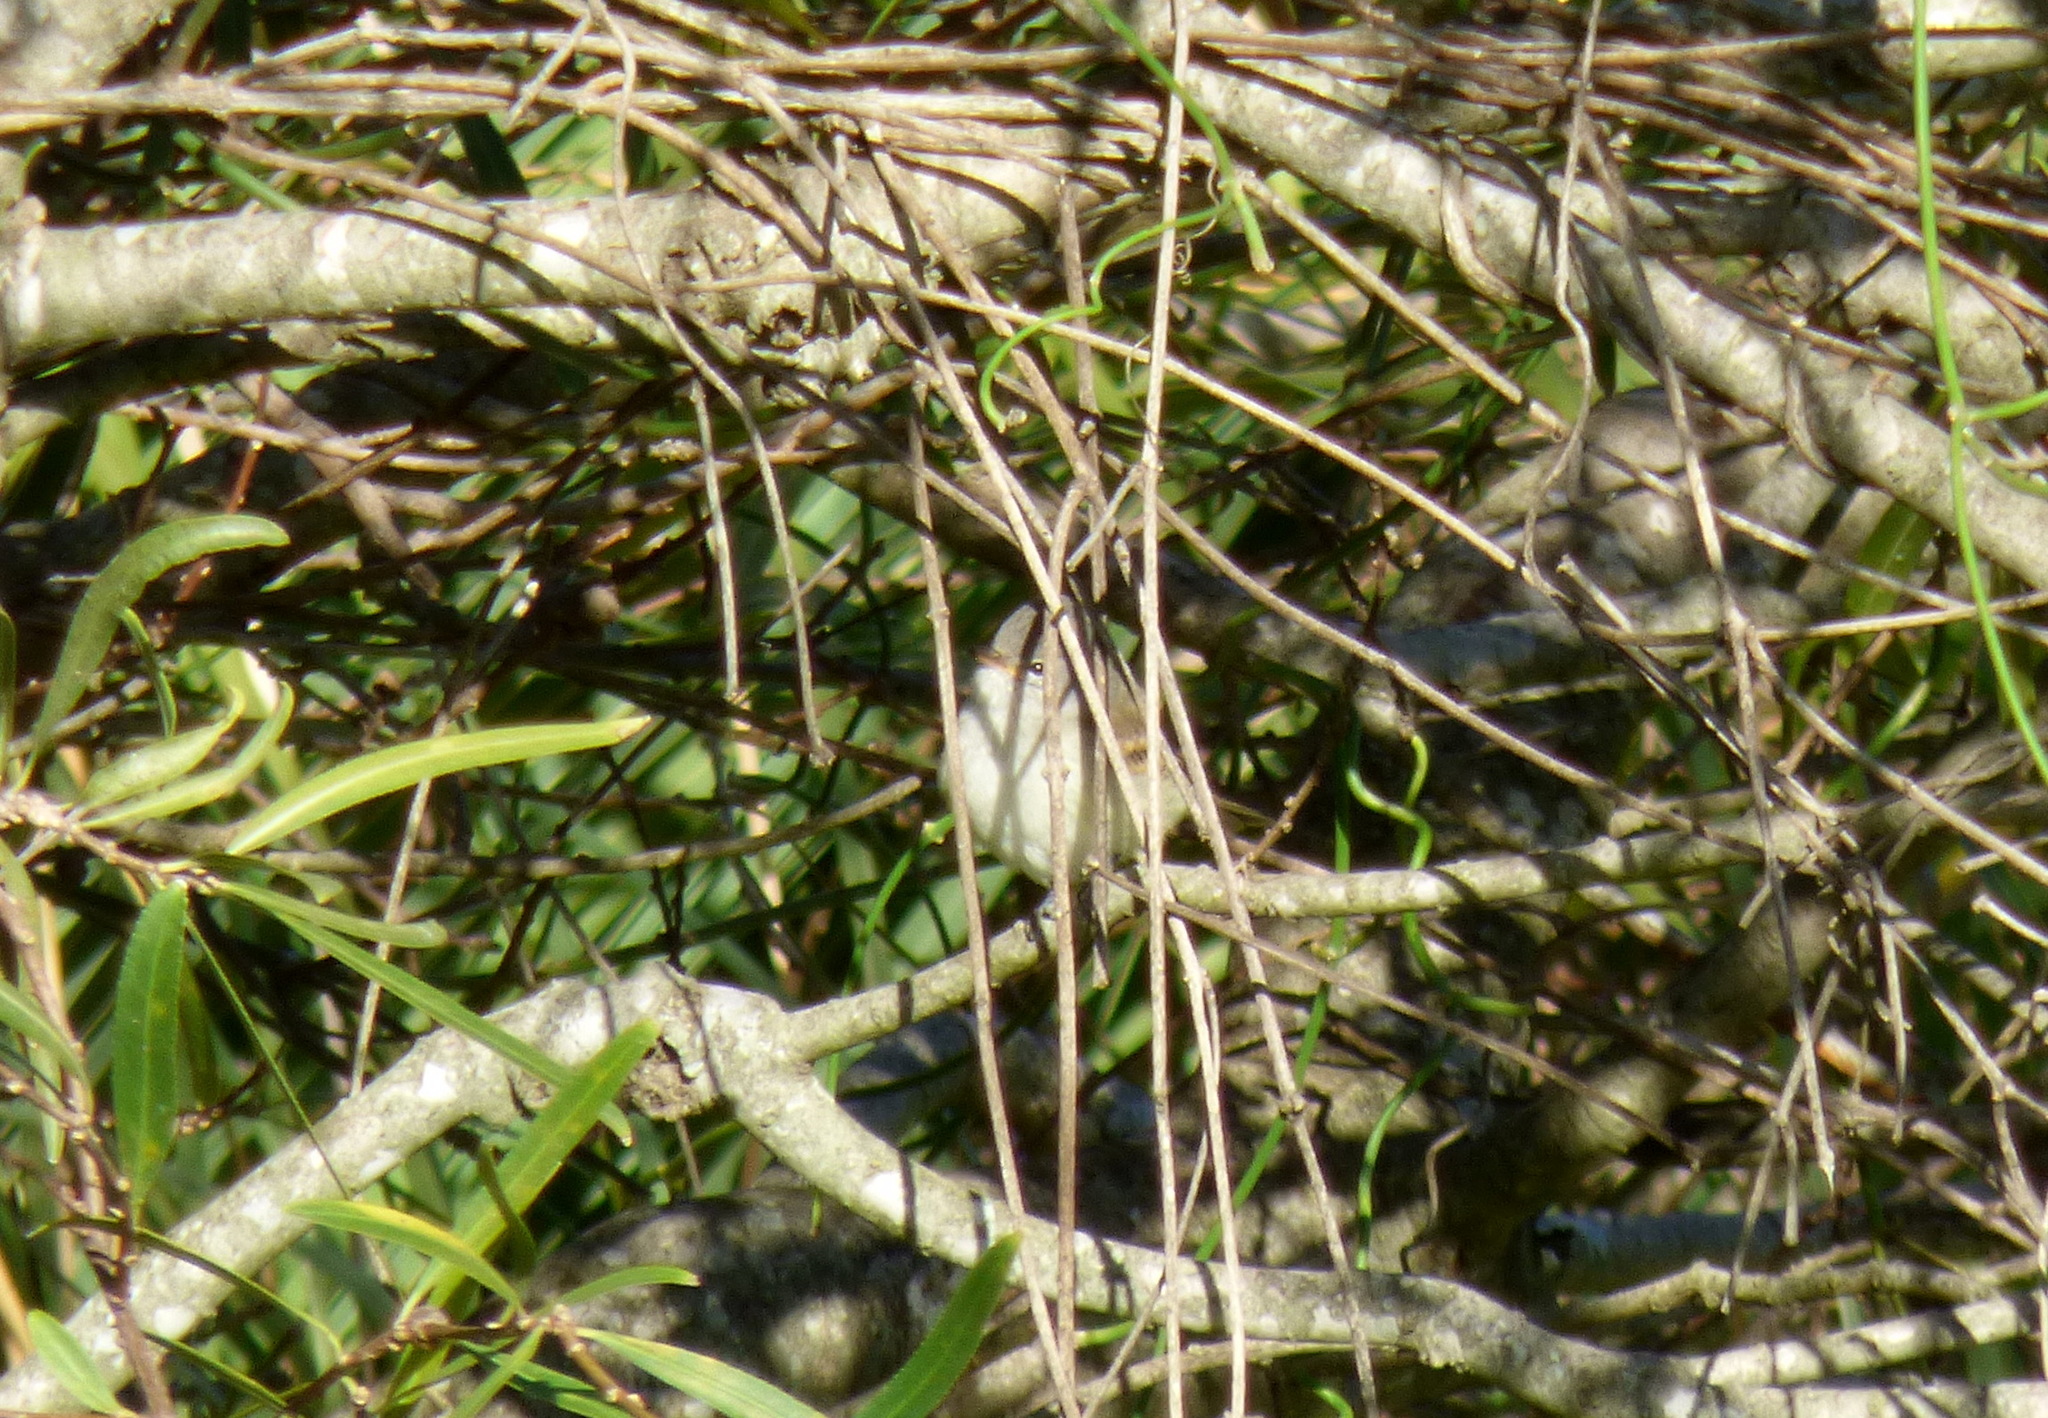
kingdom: Animalia
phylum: Chordata
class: Aves
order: Passeriformes
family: Tyrannidae
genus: Camptostoma
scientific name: Camptostoma obsoletum
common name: Southern beardless-tyrannulet
